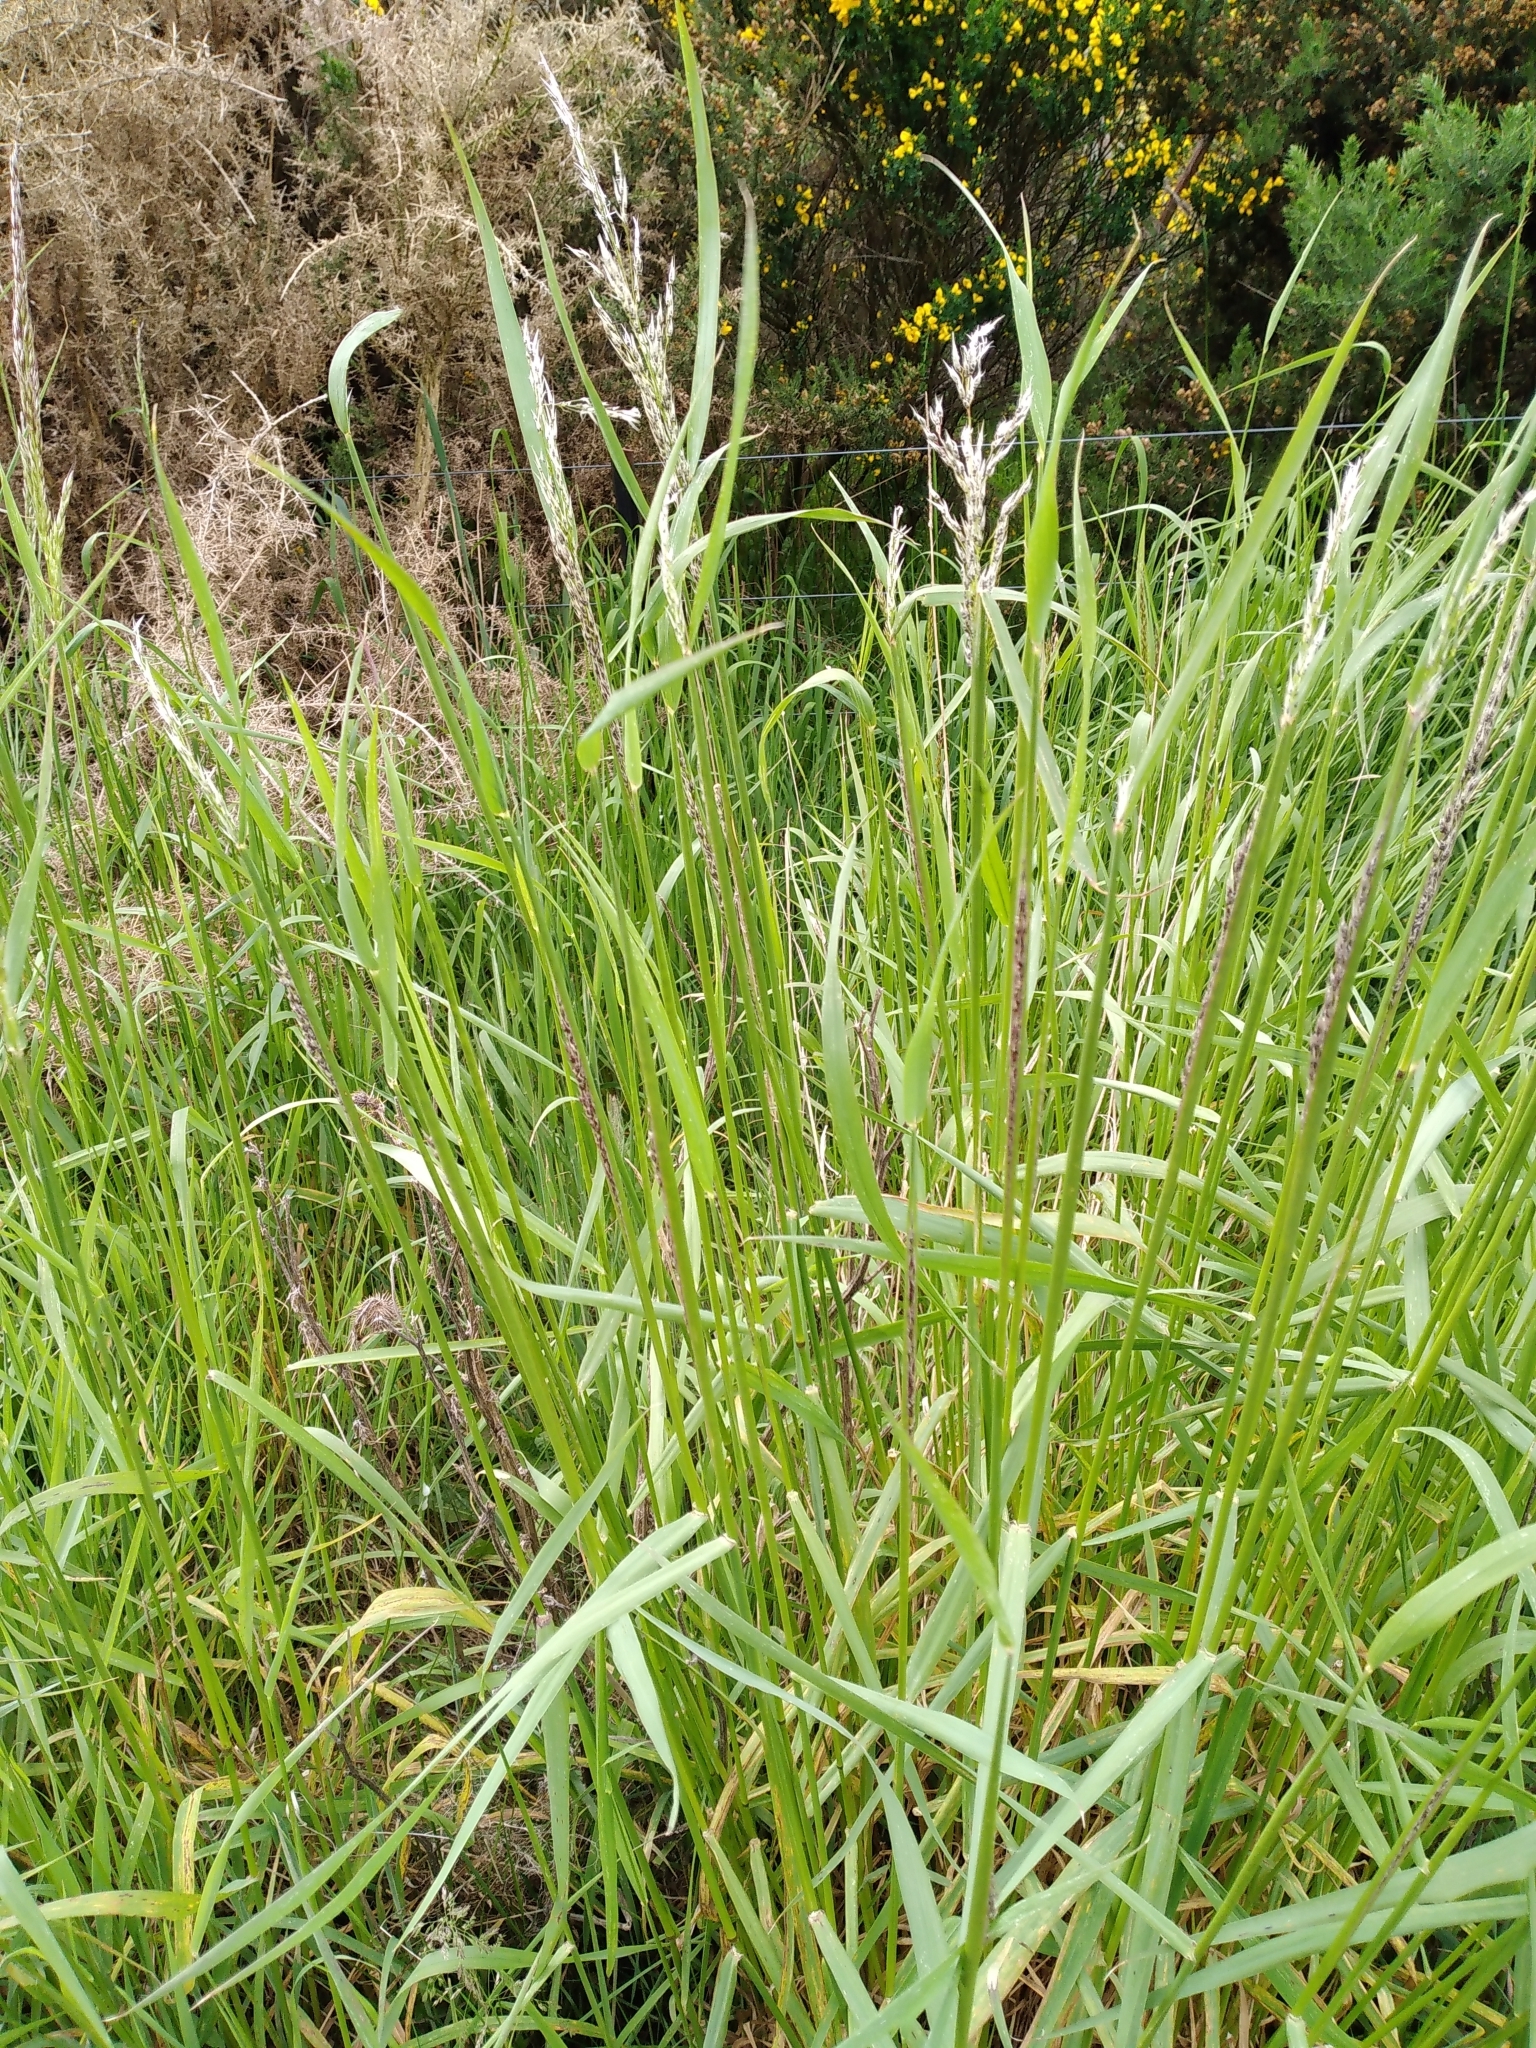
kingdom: Plantae
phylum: Tracheophyta
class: Liliopsida
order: Poales
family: Poaceae
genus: Arrhenatherum
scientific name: Arrhenatherum elatius
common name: Tall oatgrass
